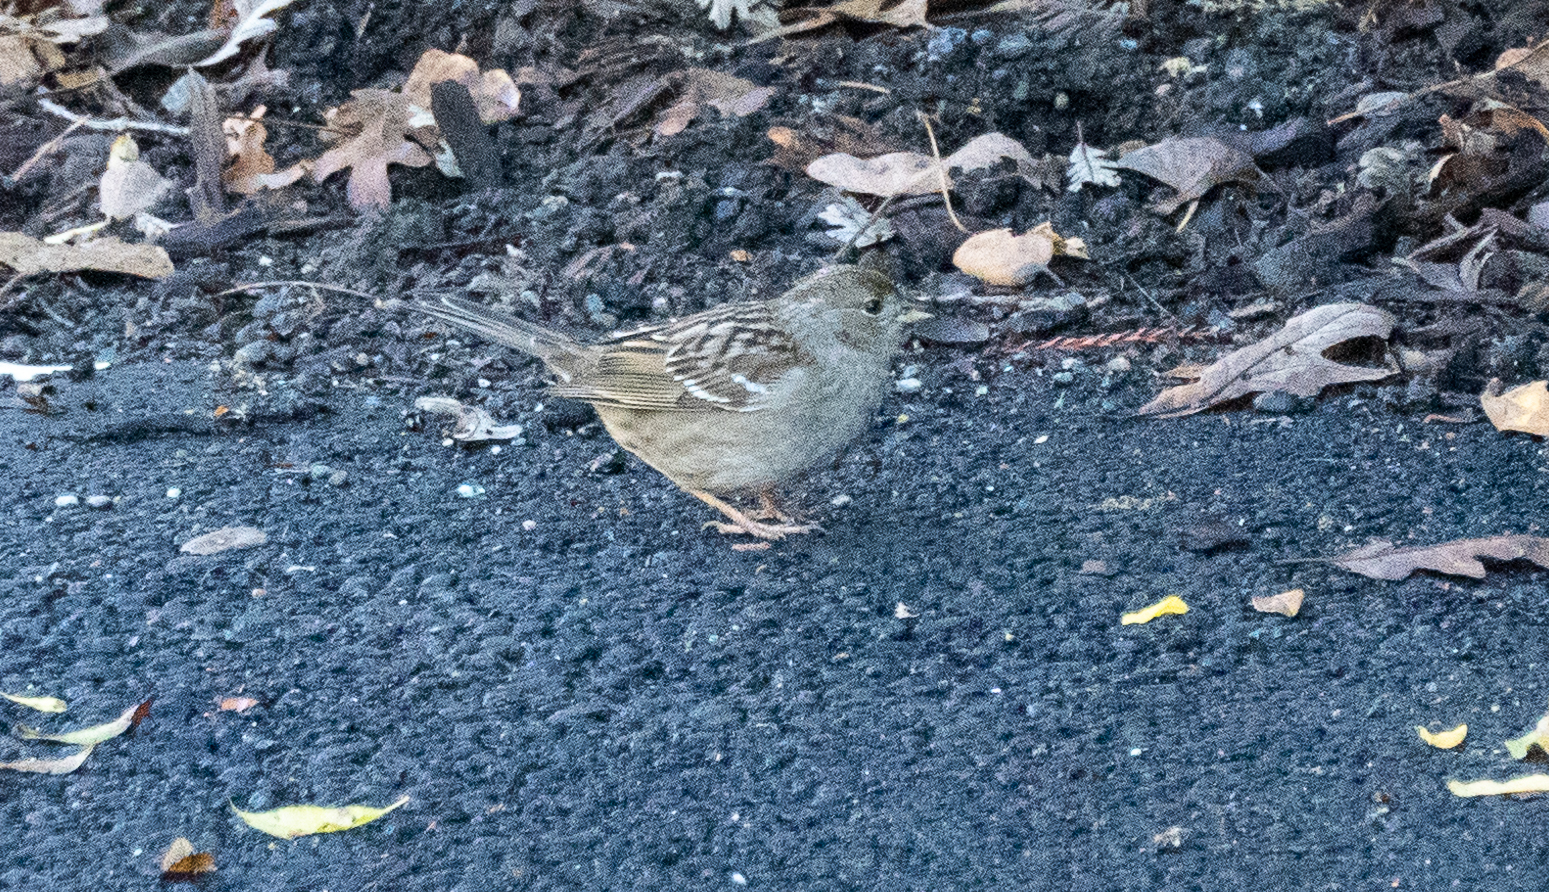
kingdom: Animalia
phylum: Chordata
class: Aves
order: Passeriformes
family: Passerellidae
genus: Zonotrichia
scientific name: Zonotrichia atricapilla
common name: Golden-crowned sparrow
